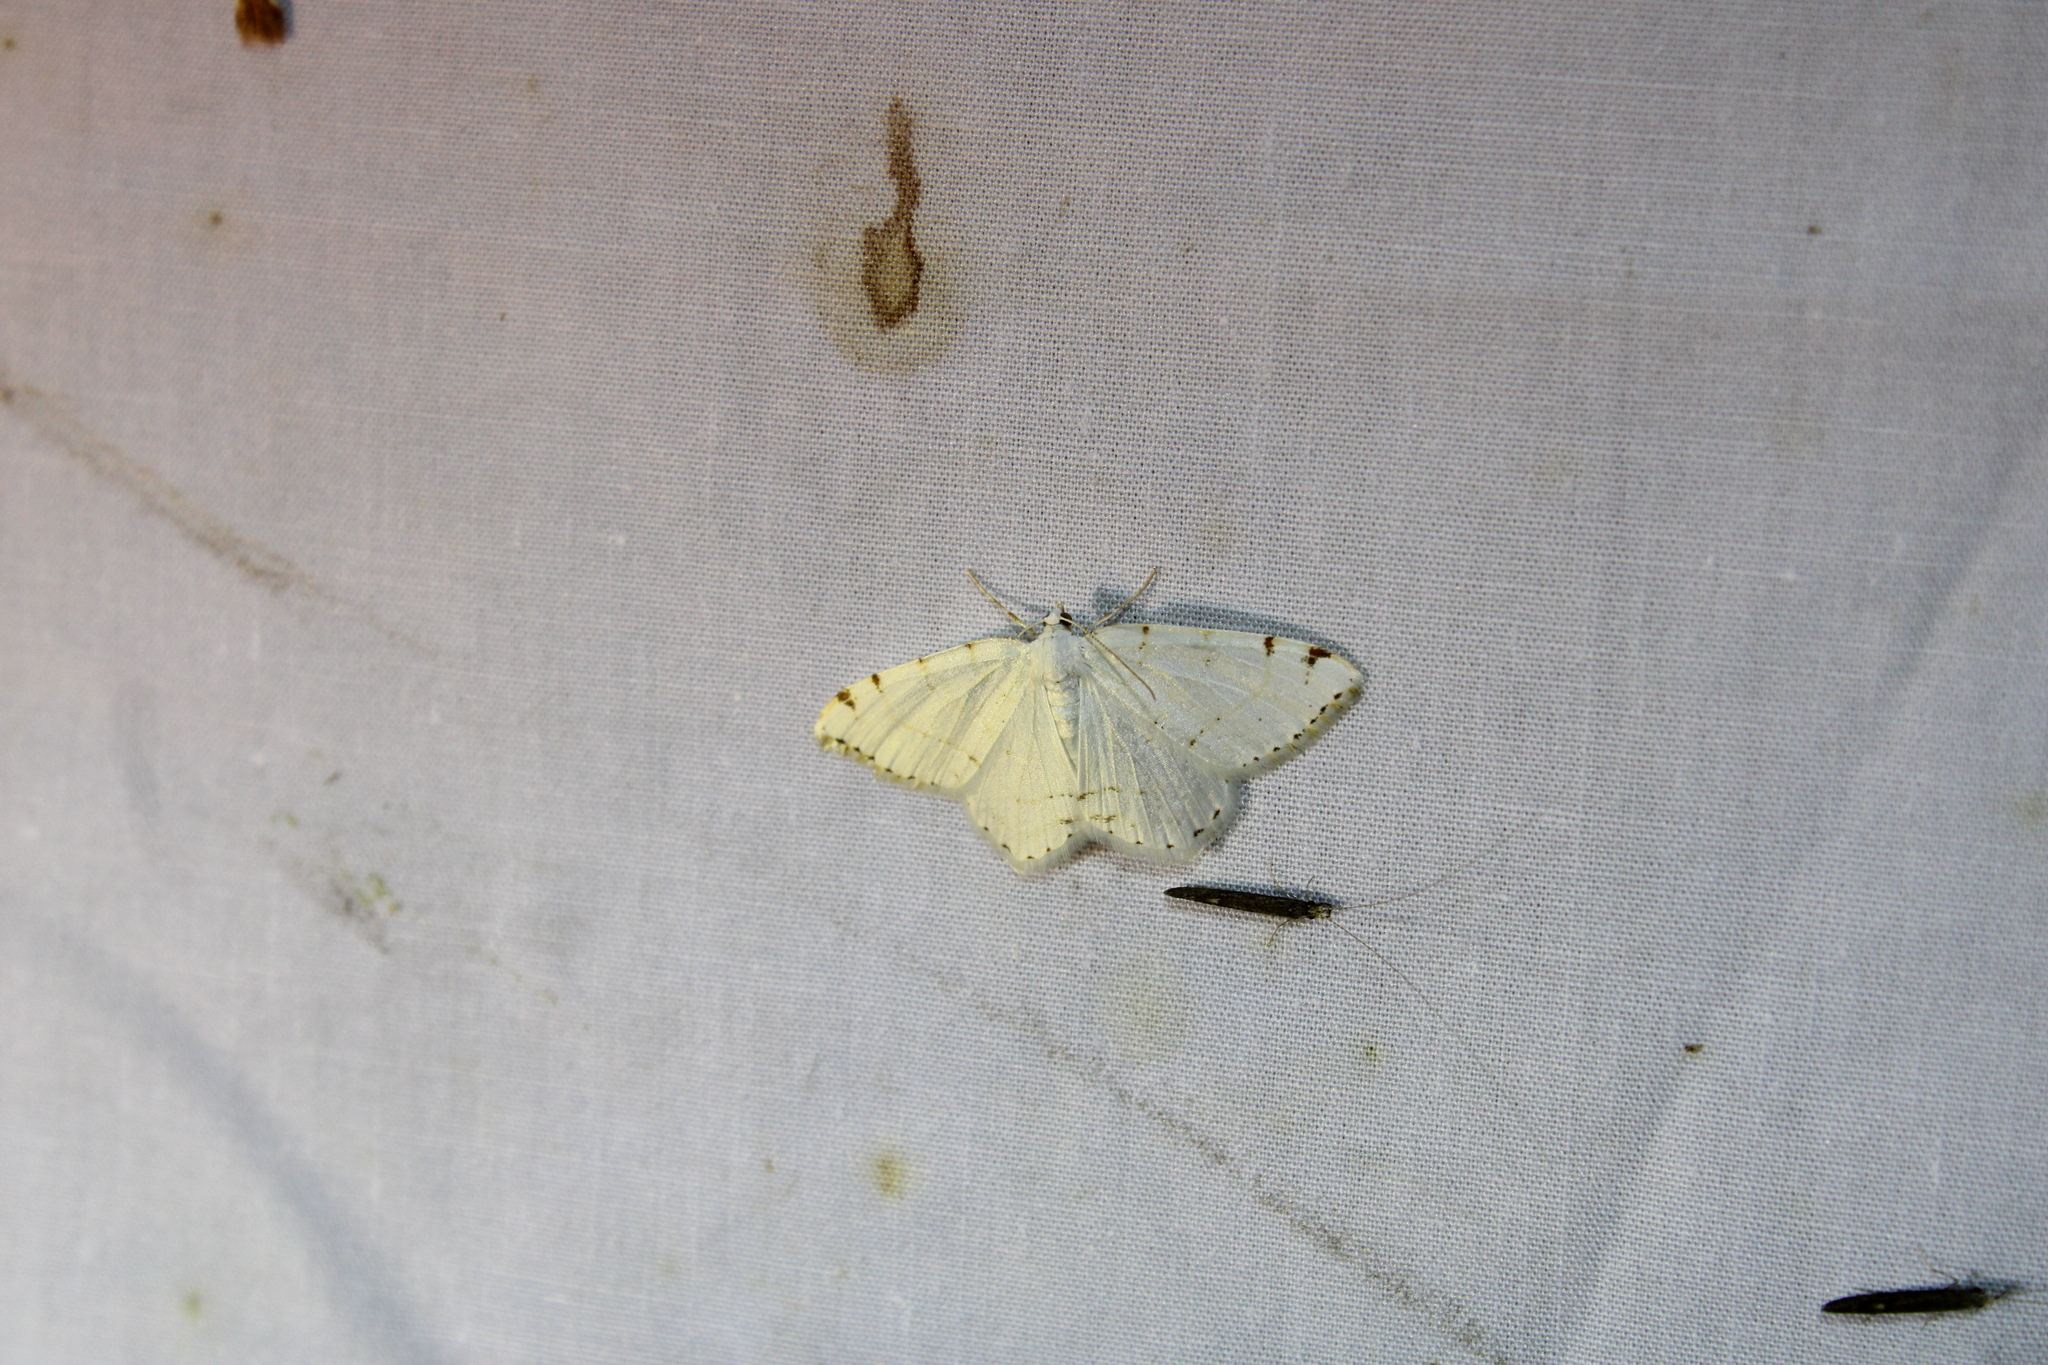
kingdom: Animalia
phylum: Arthropoda
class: Insecta
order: Lepidoptera
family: Geometridae
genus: Macaria
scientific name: Macaria pustularia
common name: Lesser maple spanworm moth
